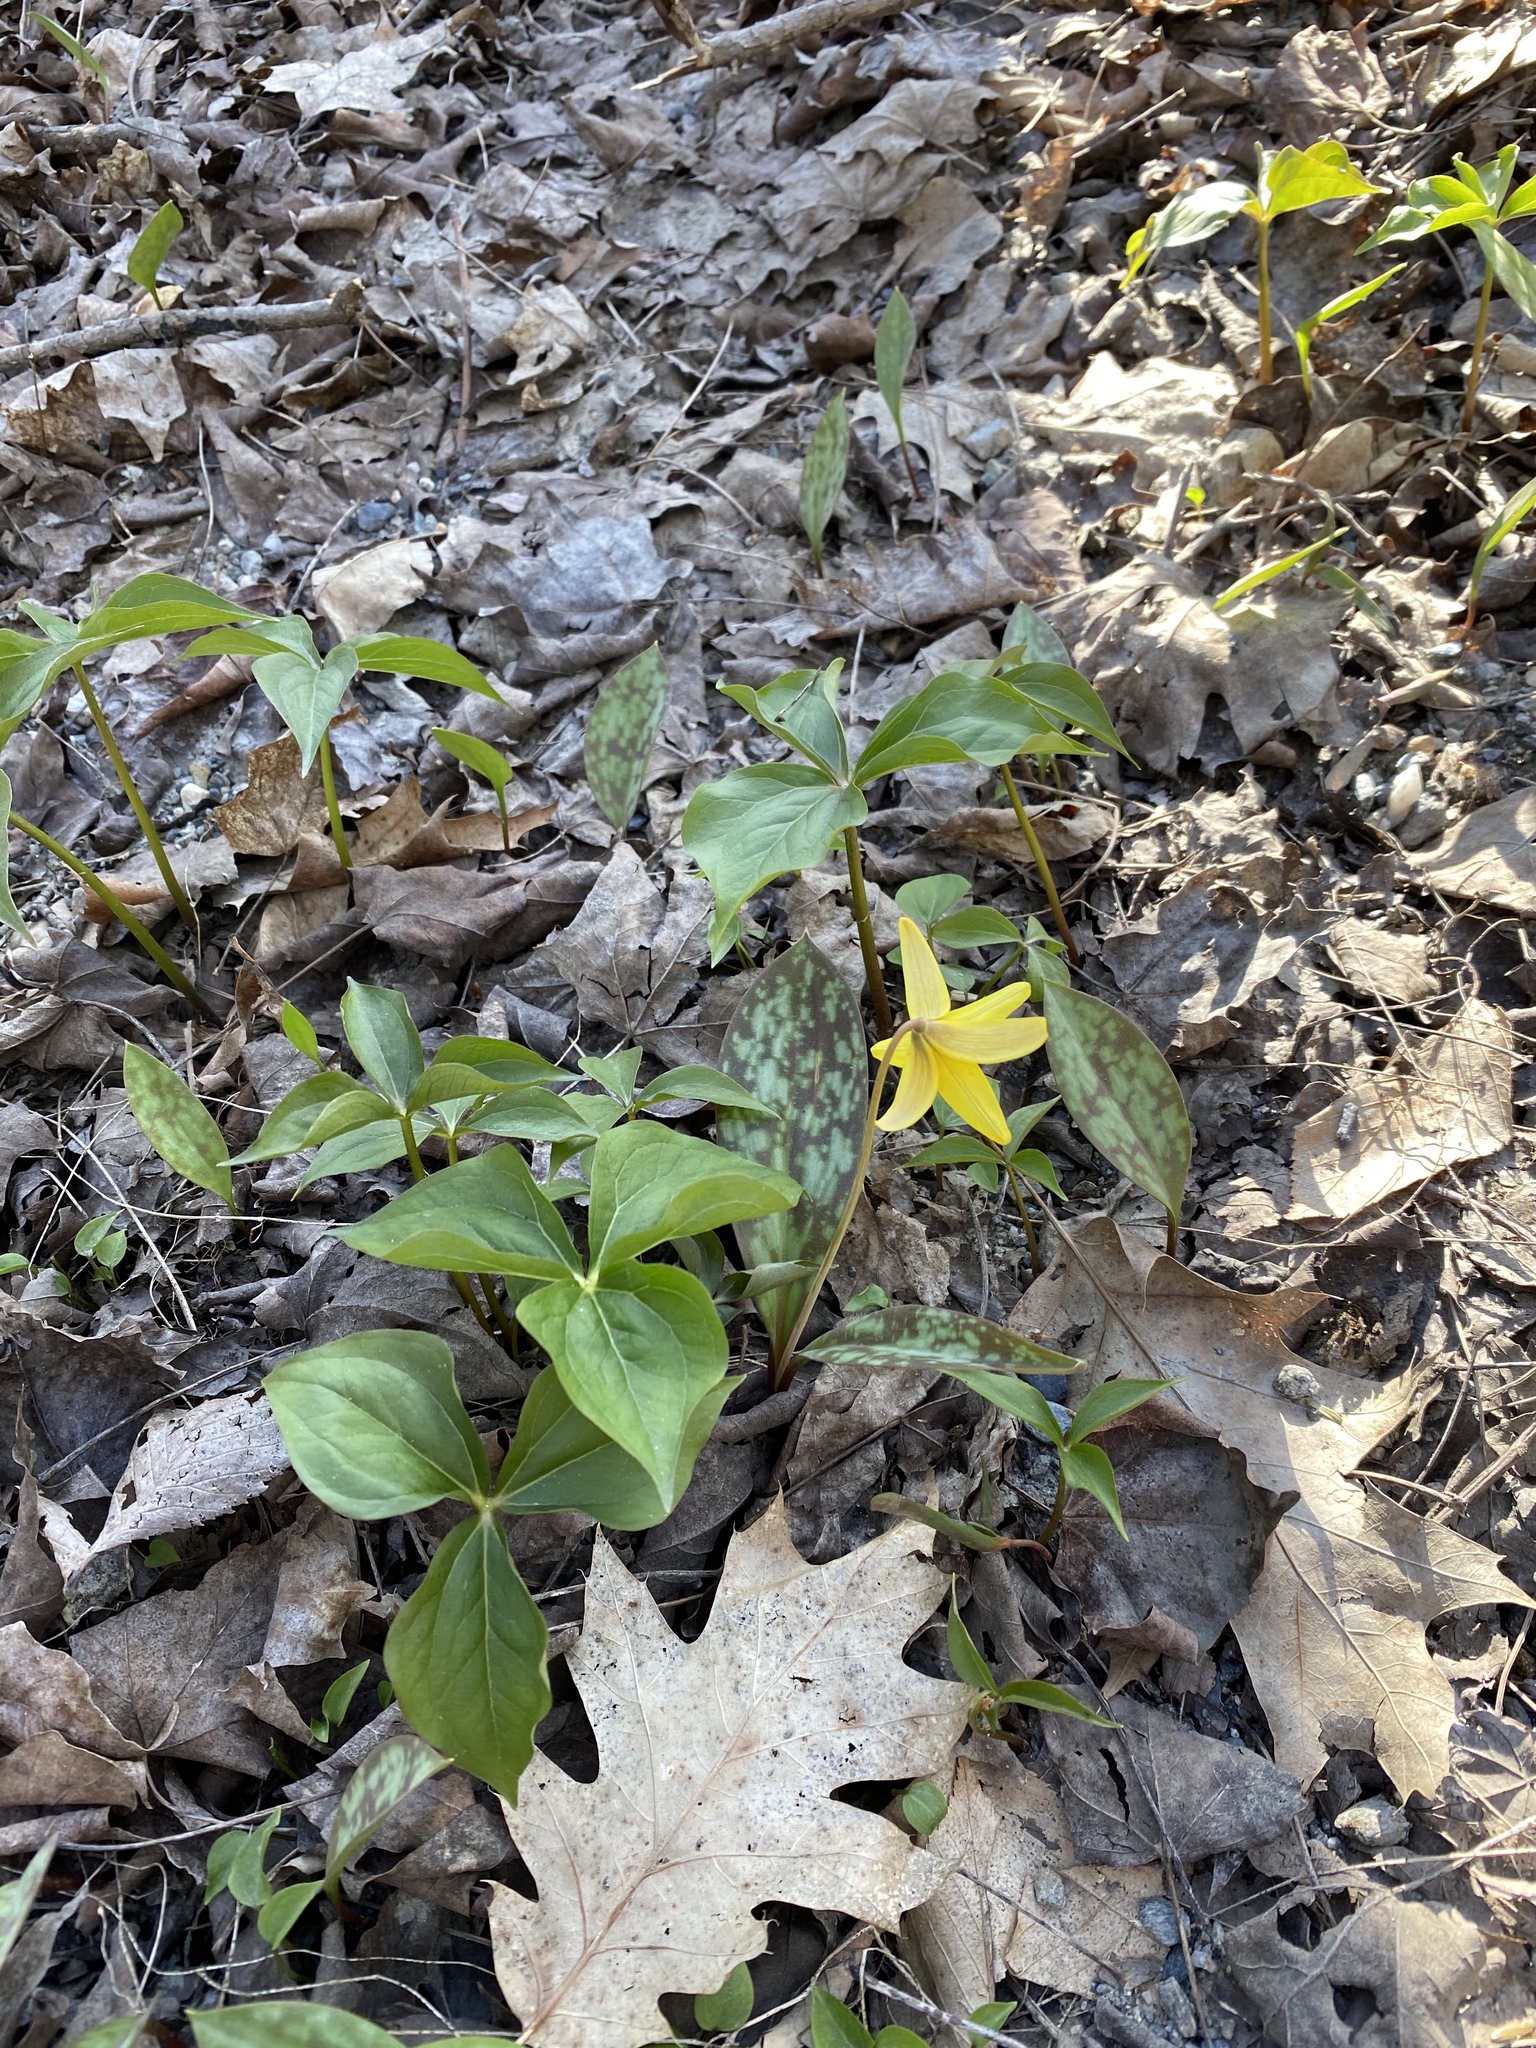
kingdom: Plantae
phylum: Tracheophyta
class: Liliopsida
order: Liliales
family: Liliaceae
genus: Erythronium
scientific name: Erythronium americanum
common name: Yellow adder's-tongue
